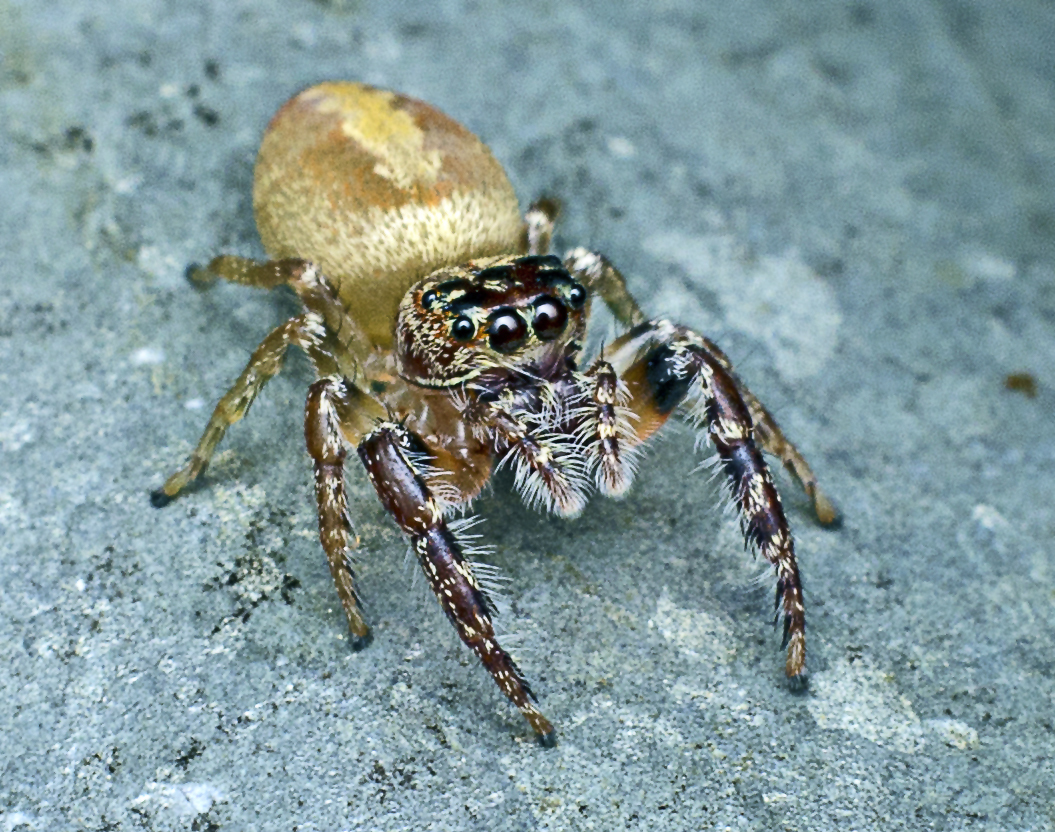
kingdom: Animalia
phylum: Arthropoda
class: Arachnida
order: Araneae
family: Salticidae
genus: Opisthoncus
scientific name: Opisthoncus alborufescens
